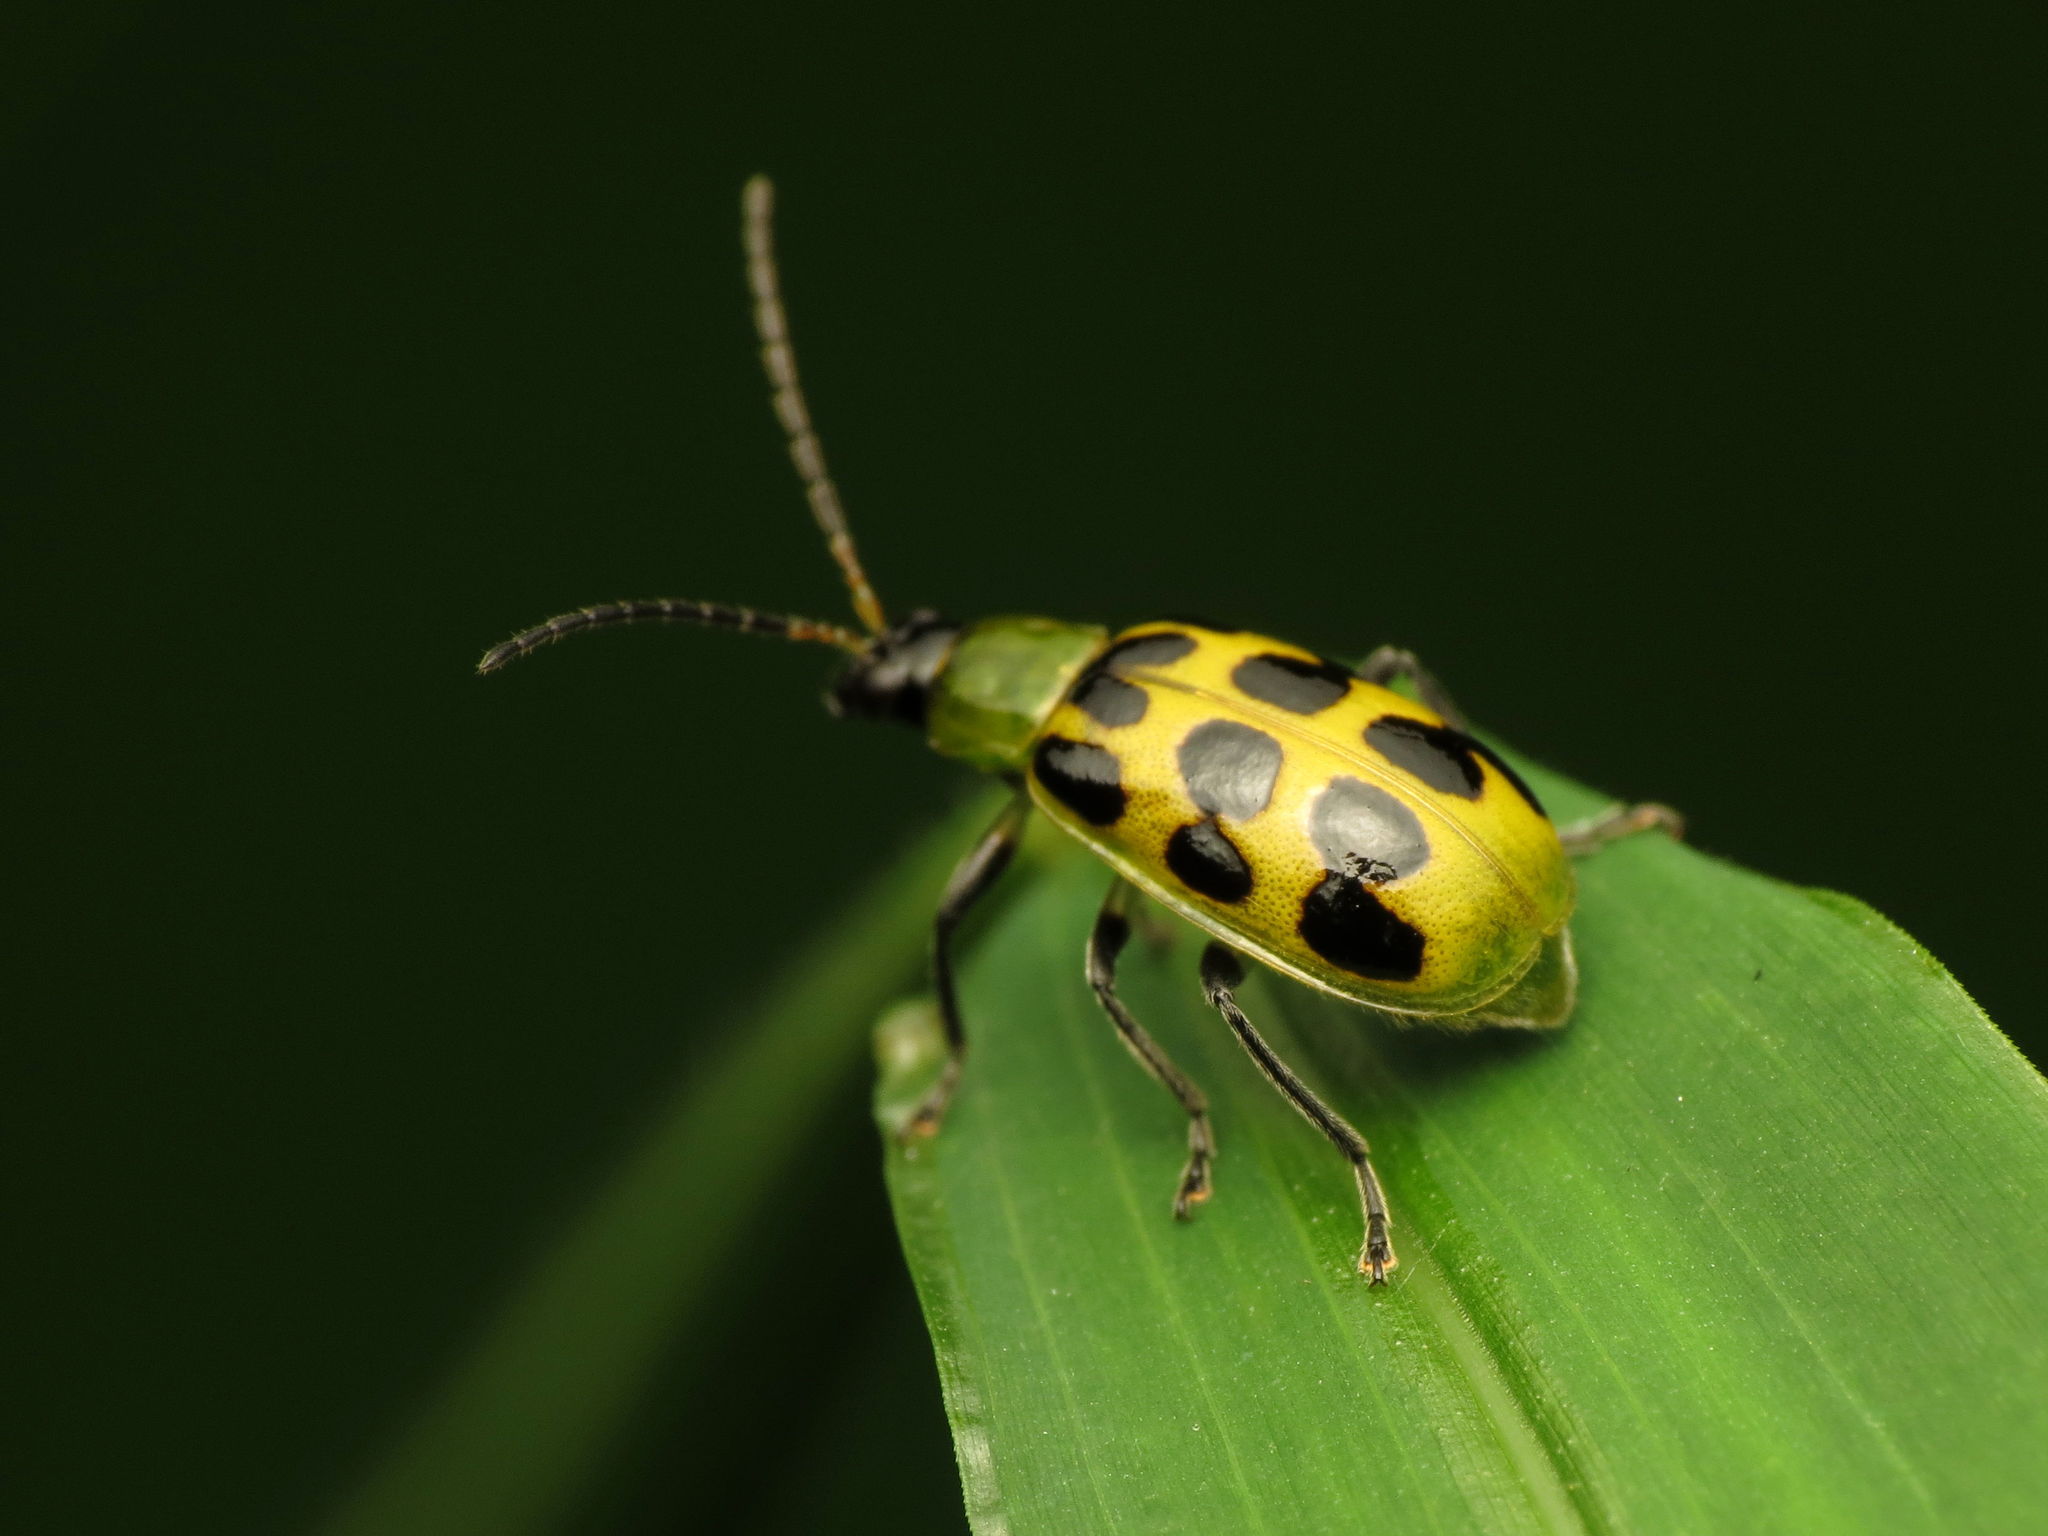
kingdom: Animalia
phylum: Arthropoda
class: Insecta
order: Coleoptera
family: Chrysomelidae
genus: Diabrotica
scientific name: Diabrotica undecimpunctata
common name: Spotted cucumber beetle
